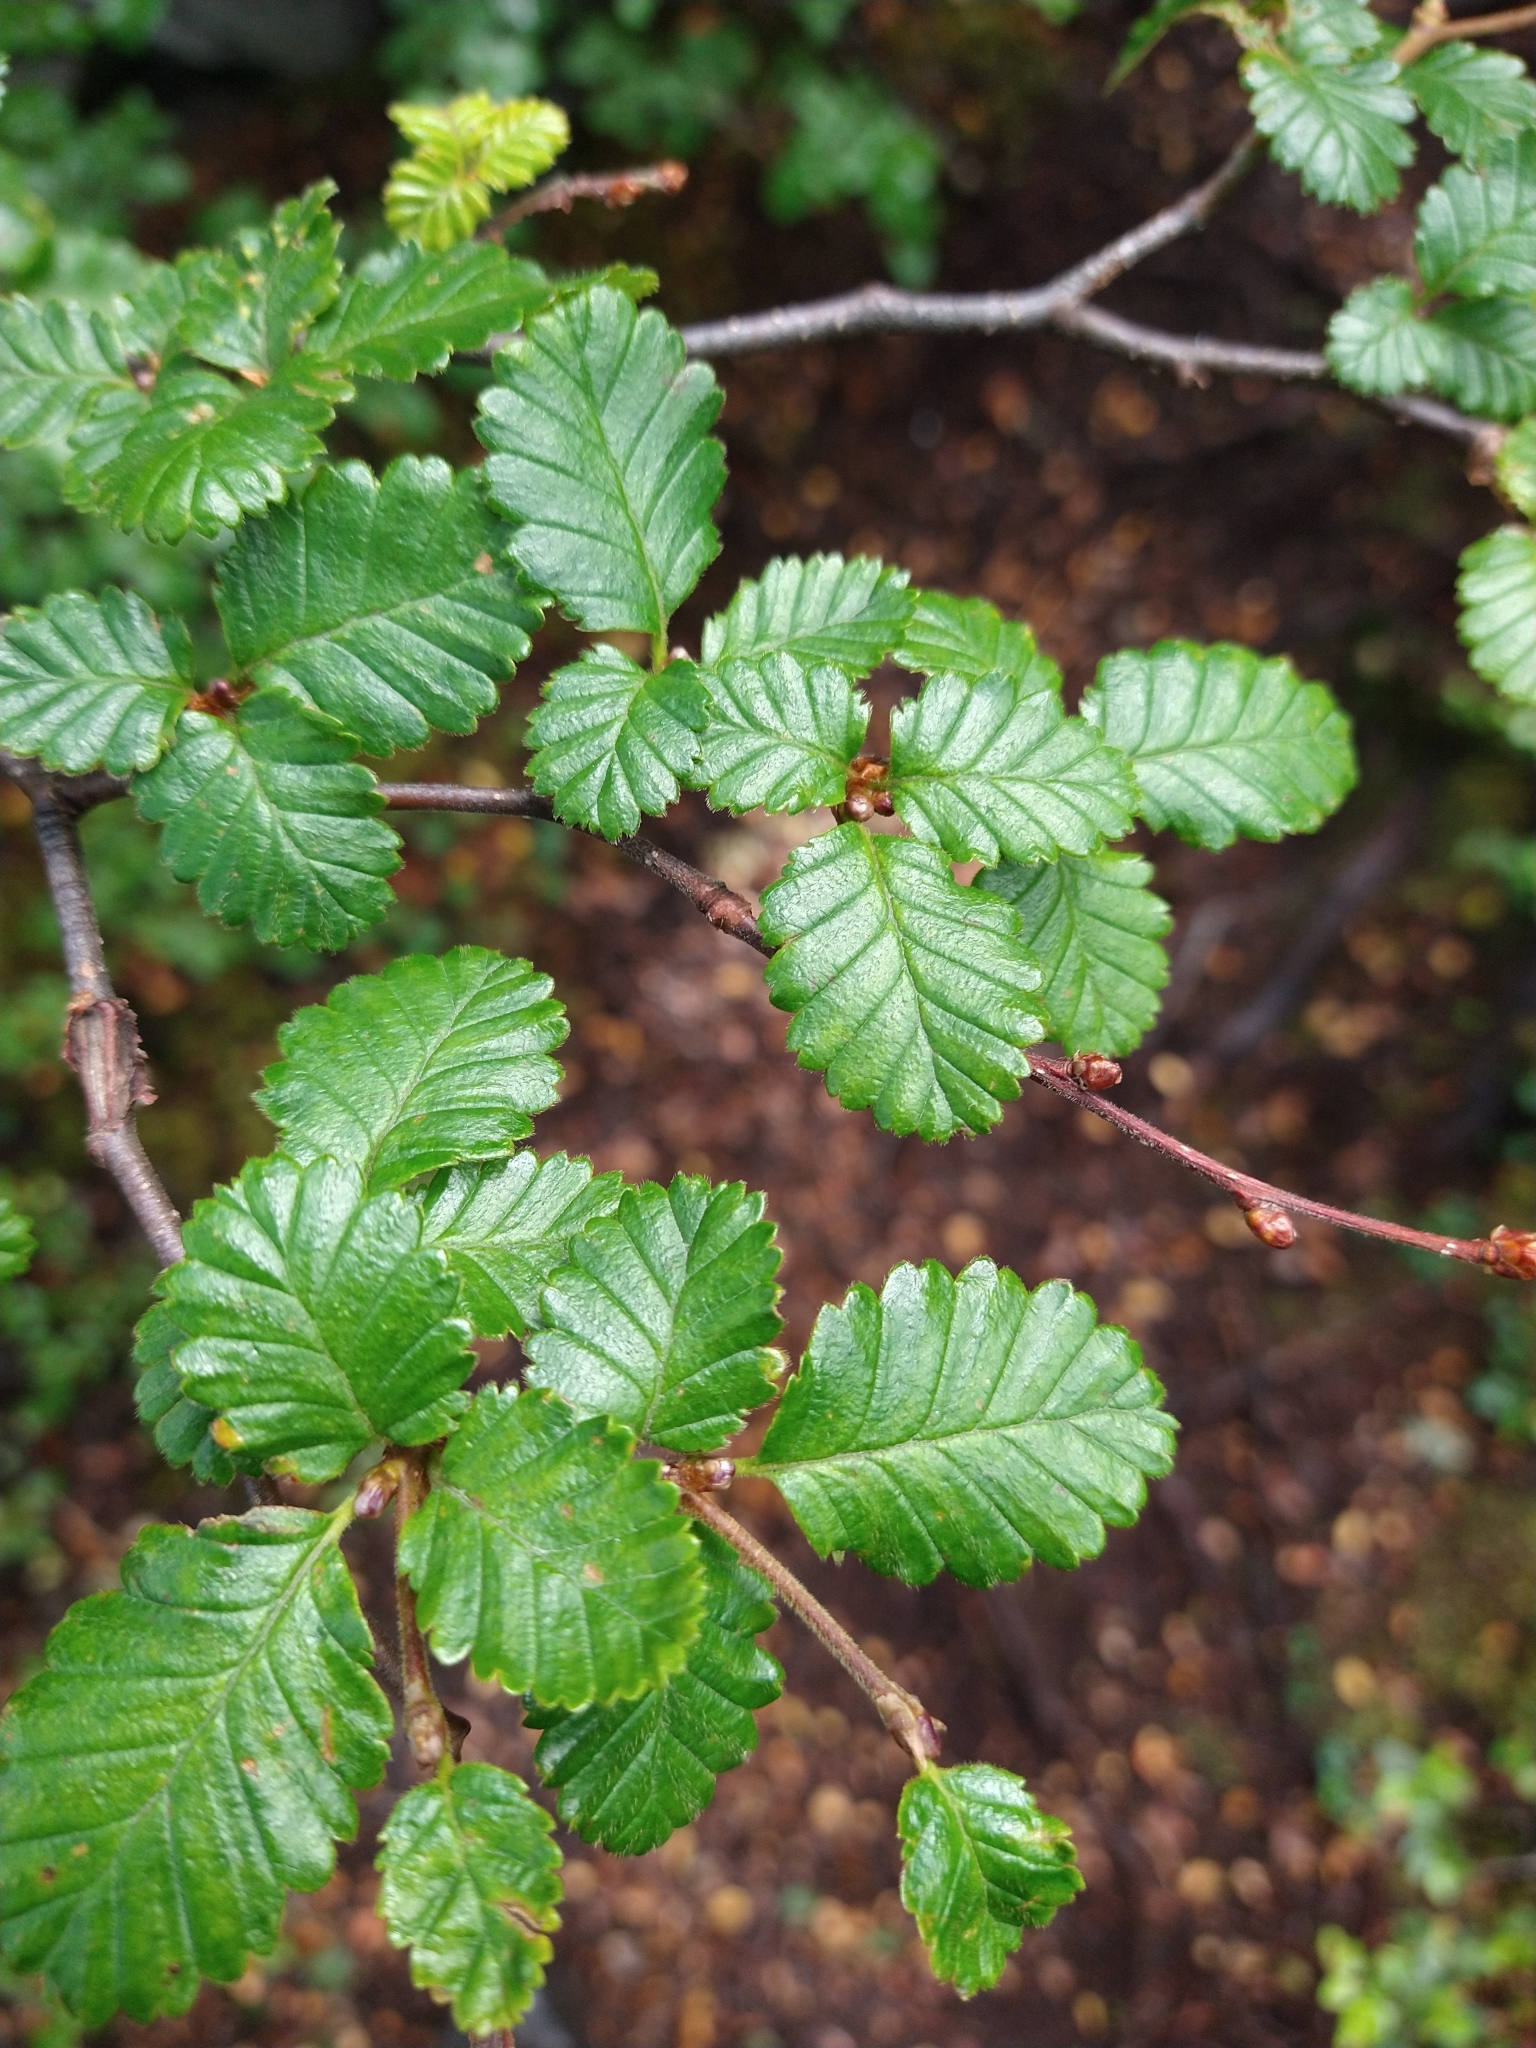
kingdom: Plantae
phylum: Tracheophyta
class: Magnoliopsida
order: Fagales
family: Nothofagaceae
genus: Nothofagus
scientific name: Nothofagus pumilio
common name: Lenga beech
